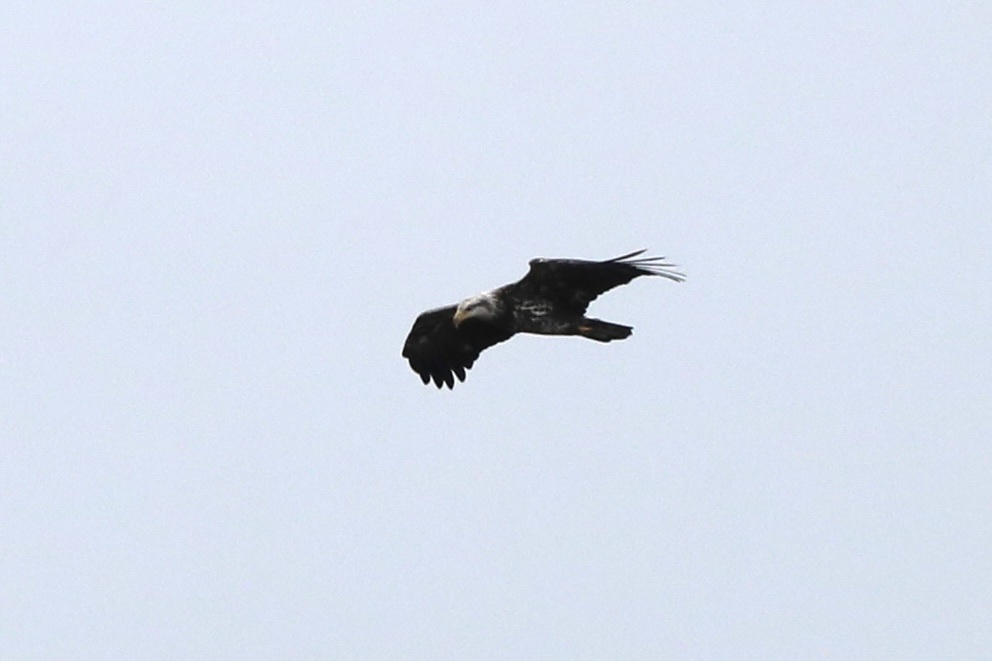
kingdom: Animalia
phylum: Chordata
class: Aves
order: Accipitriformes
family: Accipitridae
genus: Haliaeetus
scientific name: Haliaeetus leucocephalus
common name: Bald eagle
